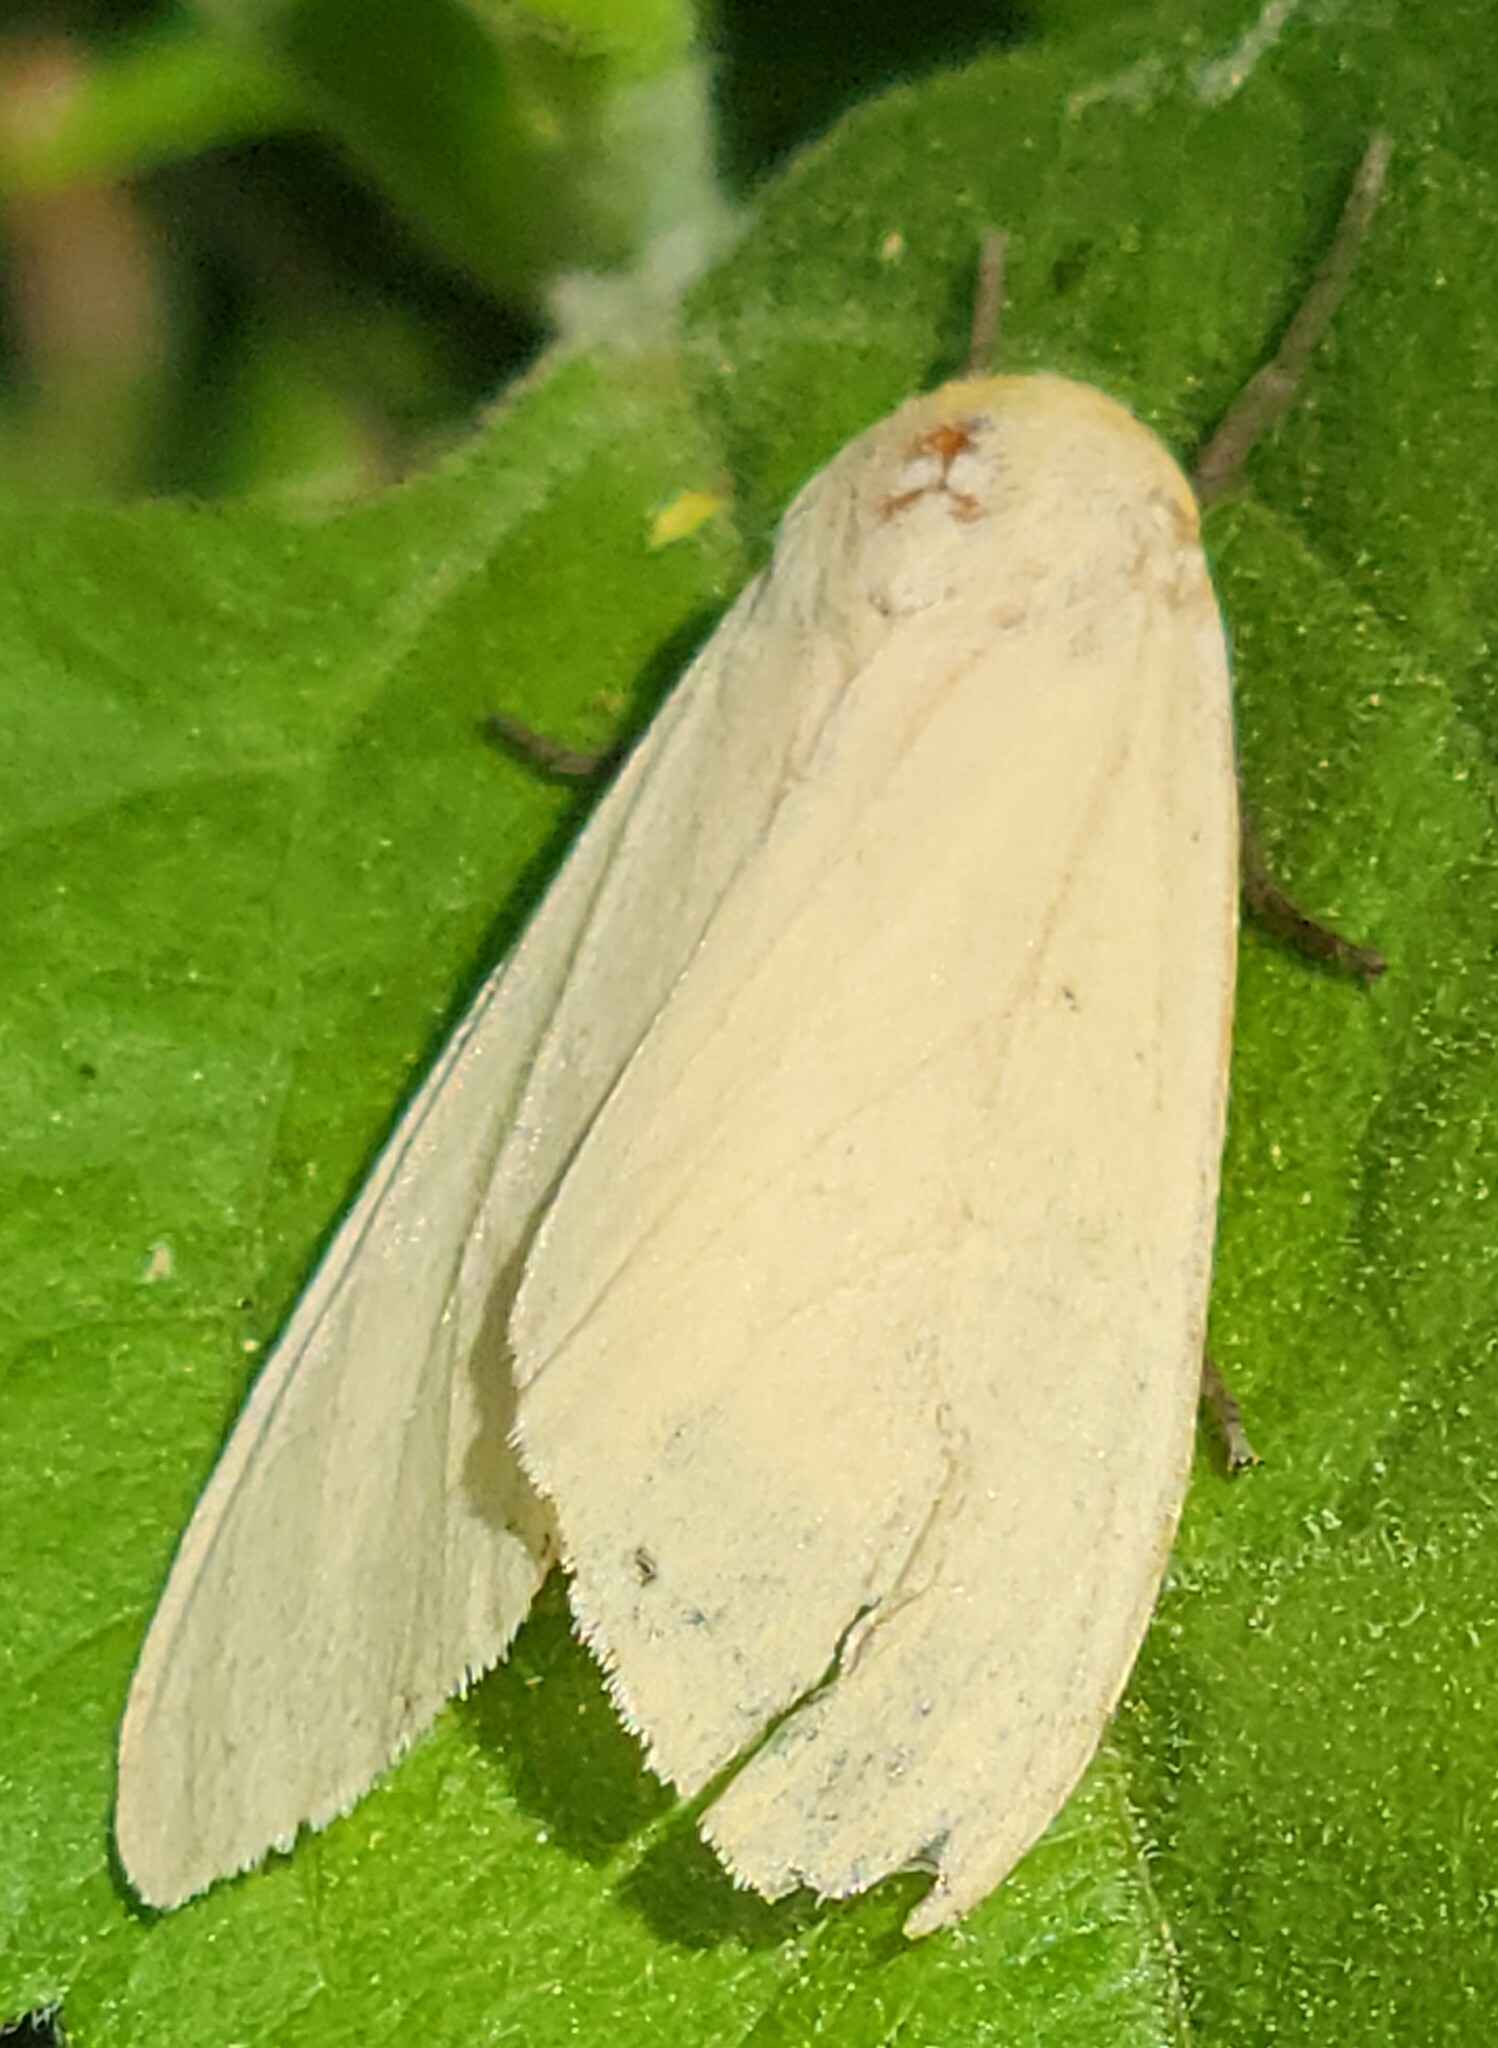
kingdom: Animalia
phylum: Arthropoda
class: Insecta
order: Lepidoptera
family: Erebidae
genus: Pareuchaetes
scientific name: Pareuchaetes insulata
